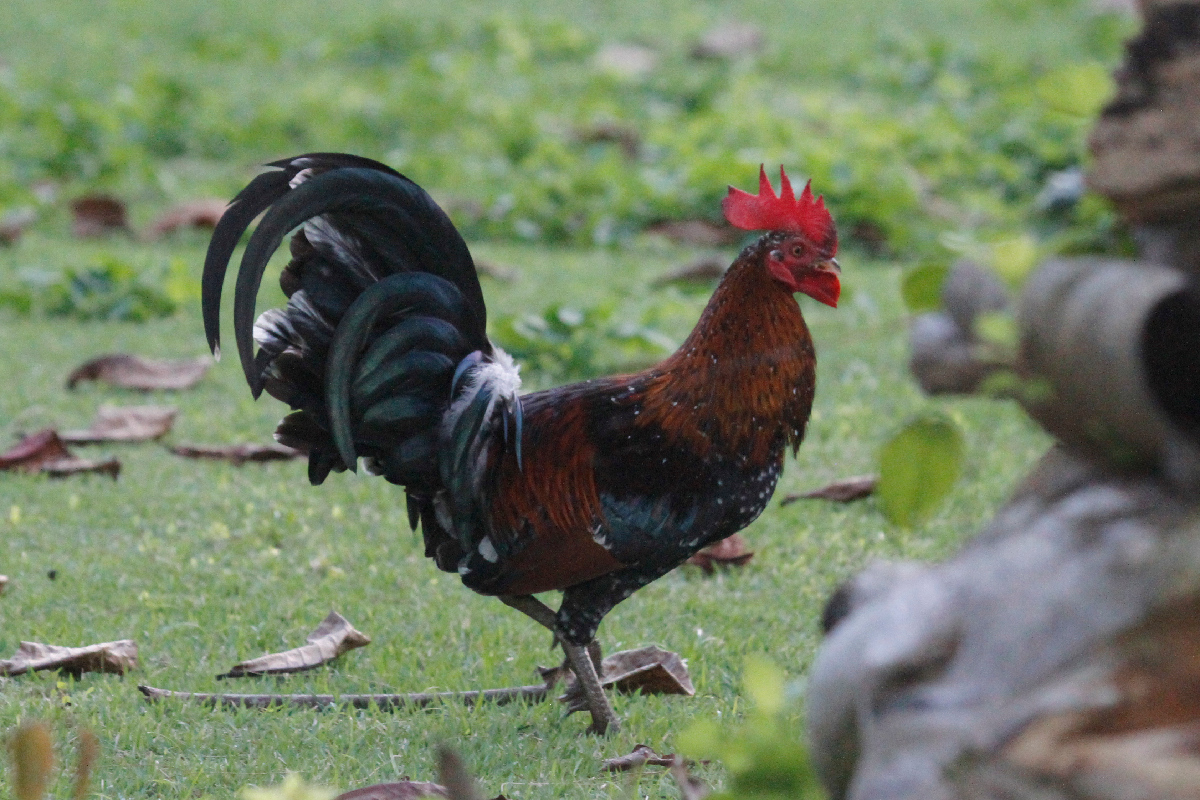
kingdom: Animalia
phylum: Chordata
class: Aves
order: Galliformes
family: Phasianidae
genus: Gallus
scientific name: Gallus gallus
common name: Red junglefowl
